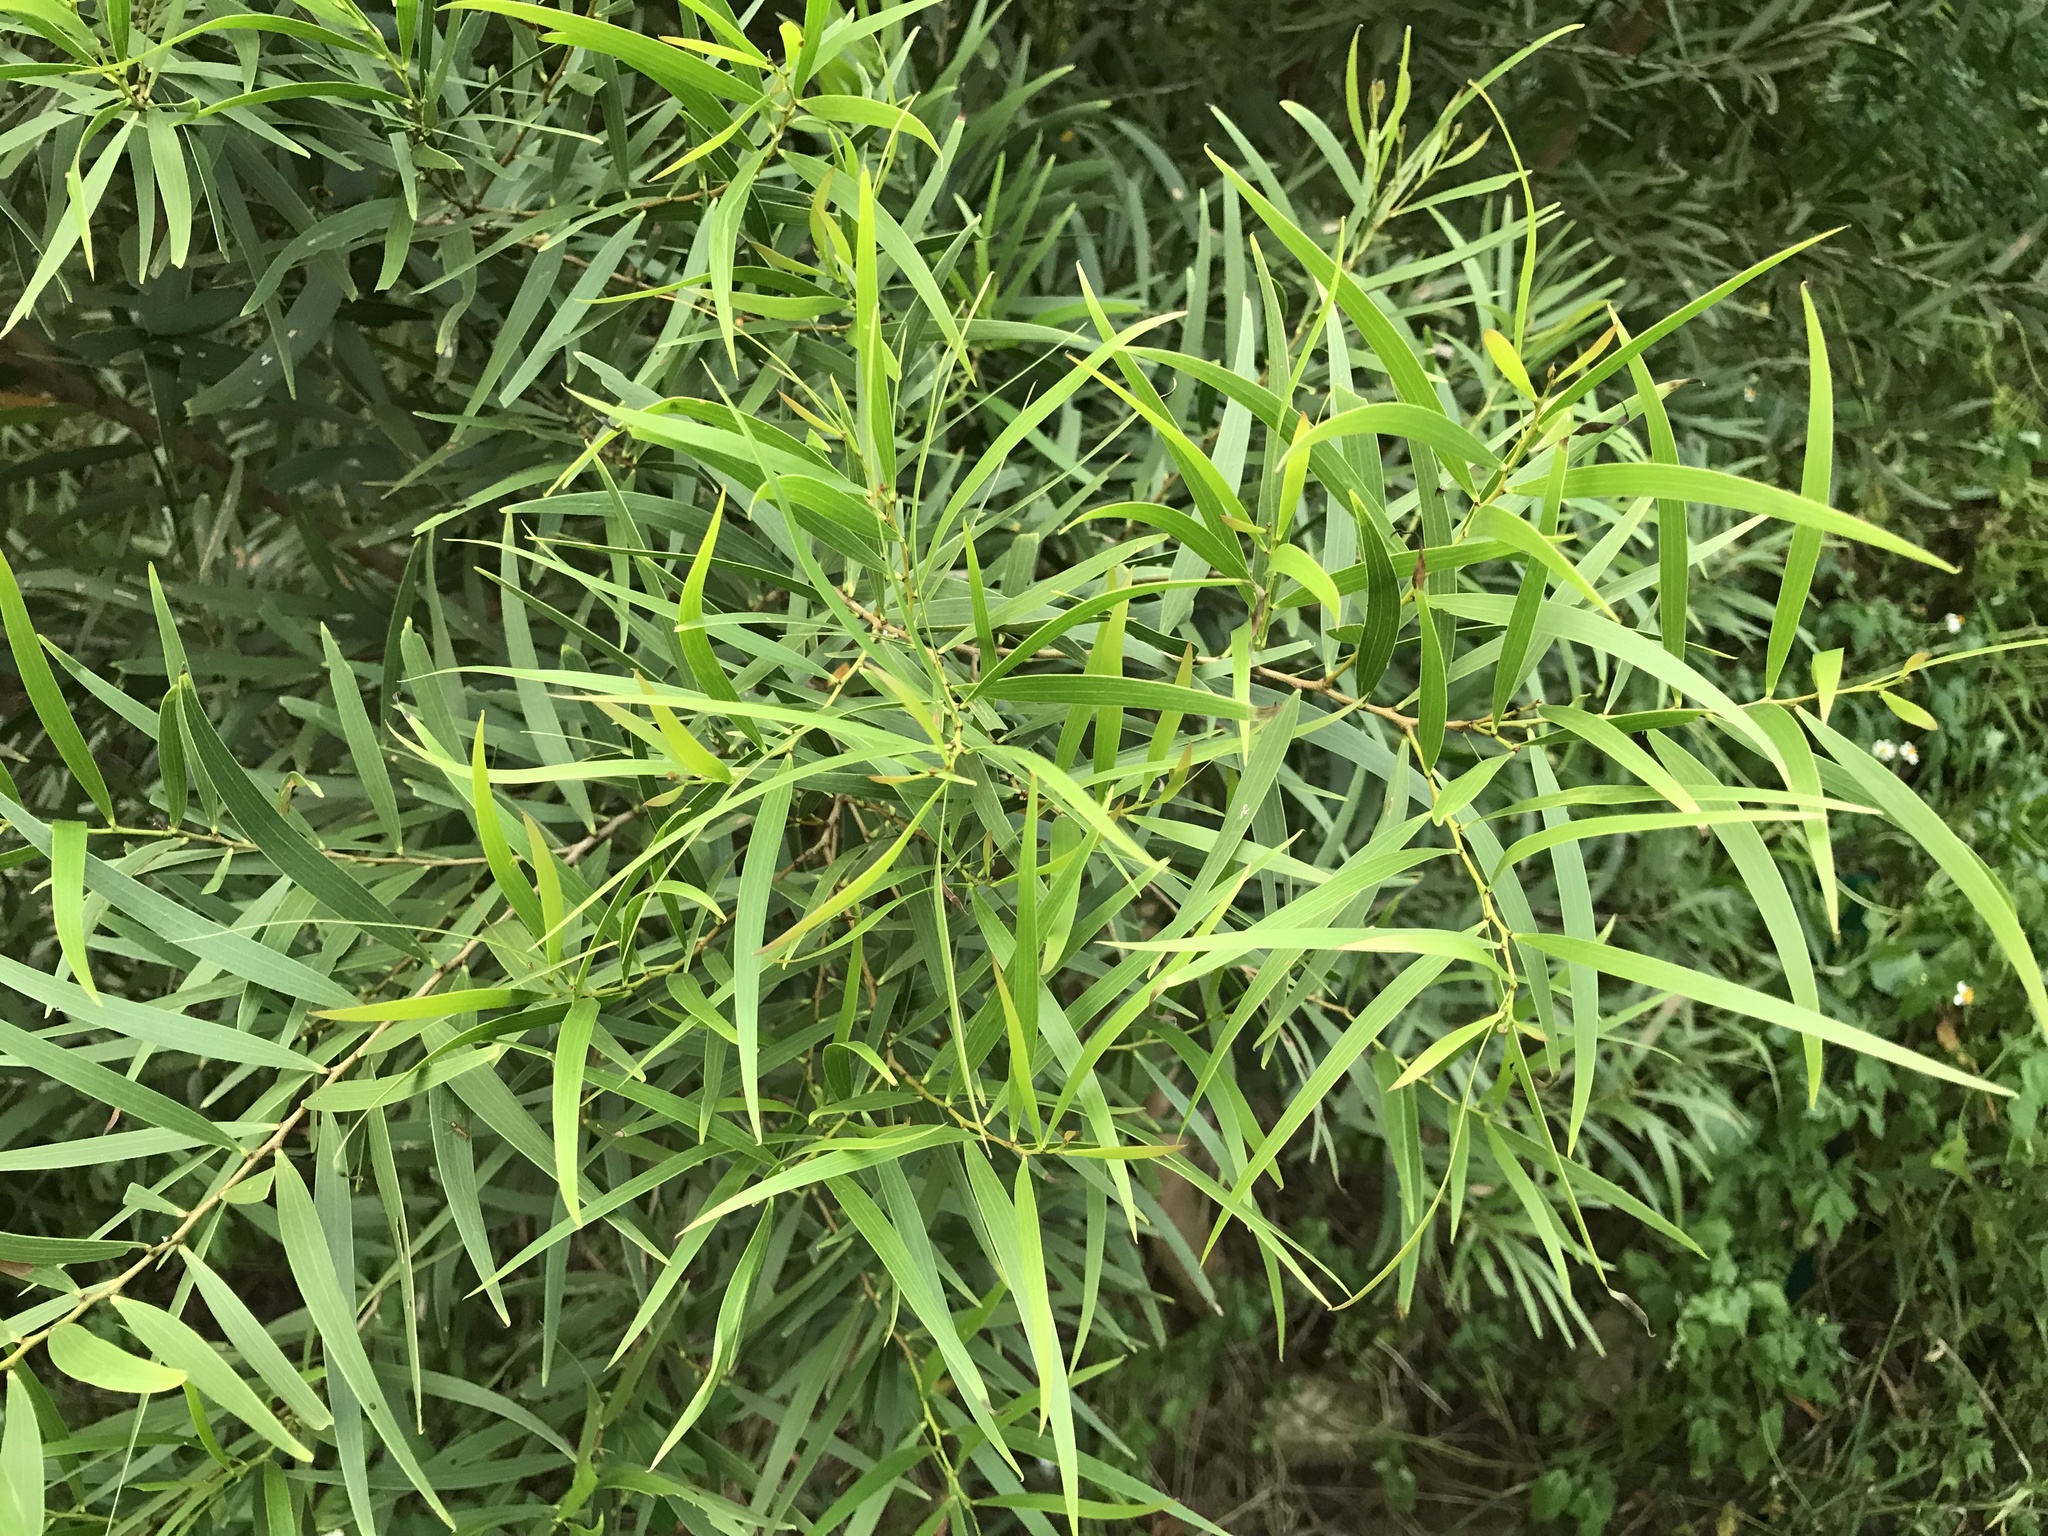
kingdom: Plantae
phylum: Tracheophyta
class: Magnoliopsida
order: Fabales
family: Fabaceae
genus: Acacia
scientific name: Acacia confusa
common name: Formosan koa
